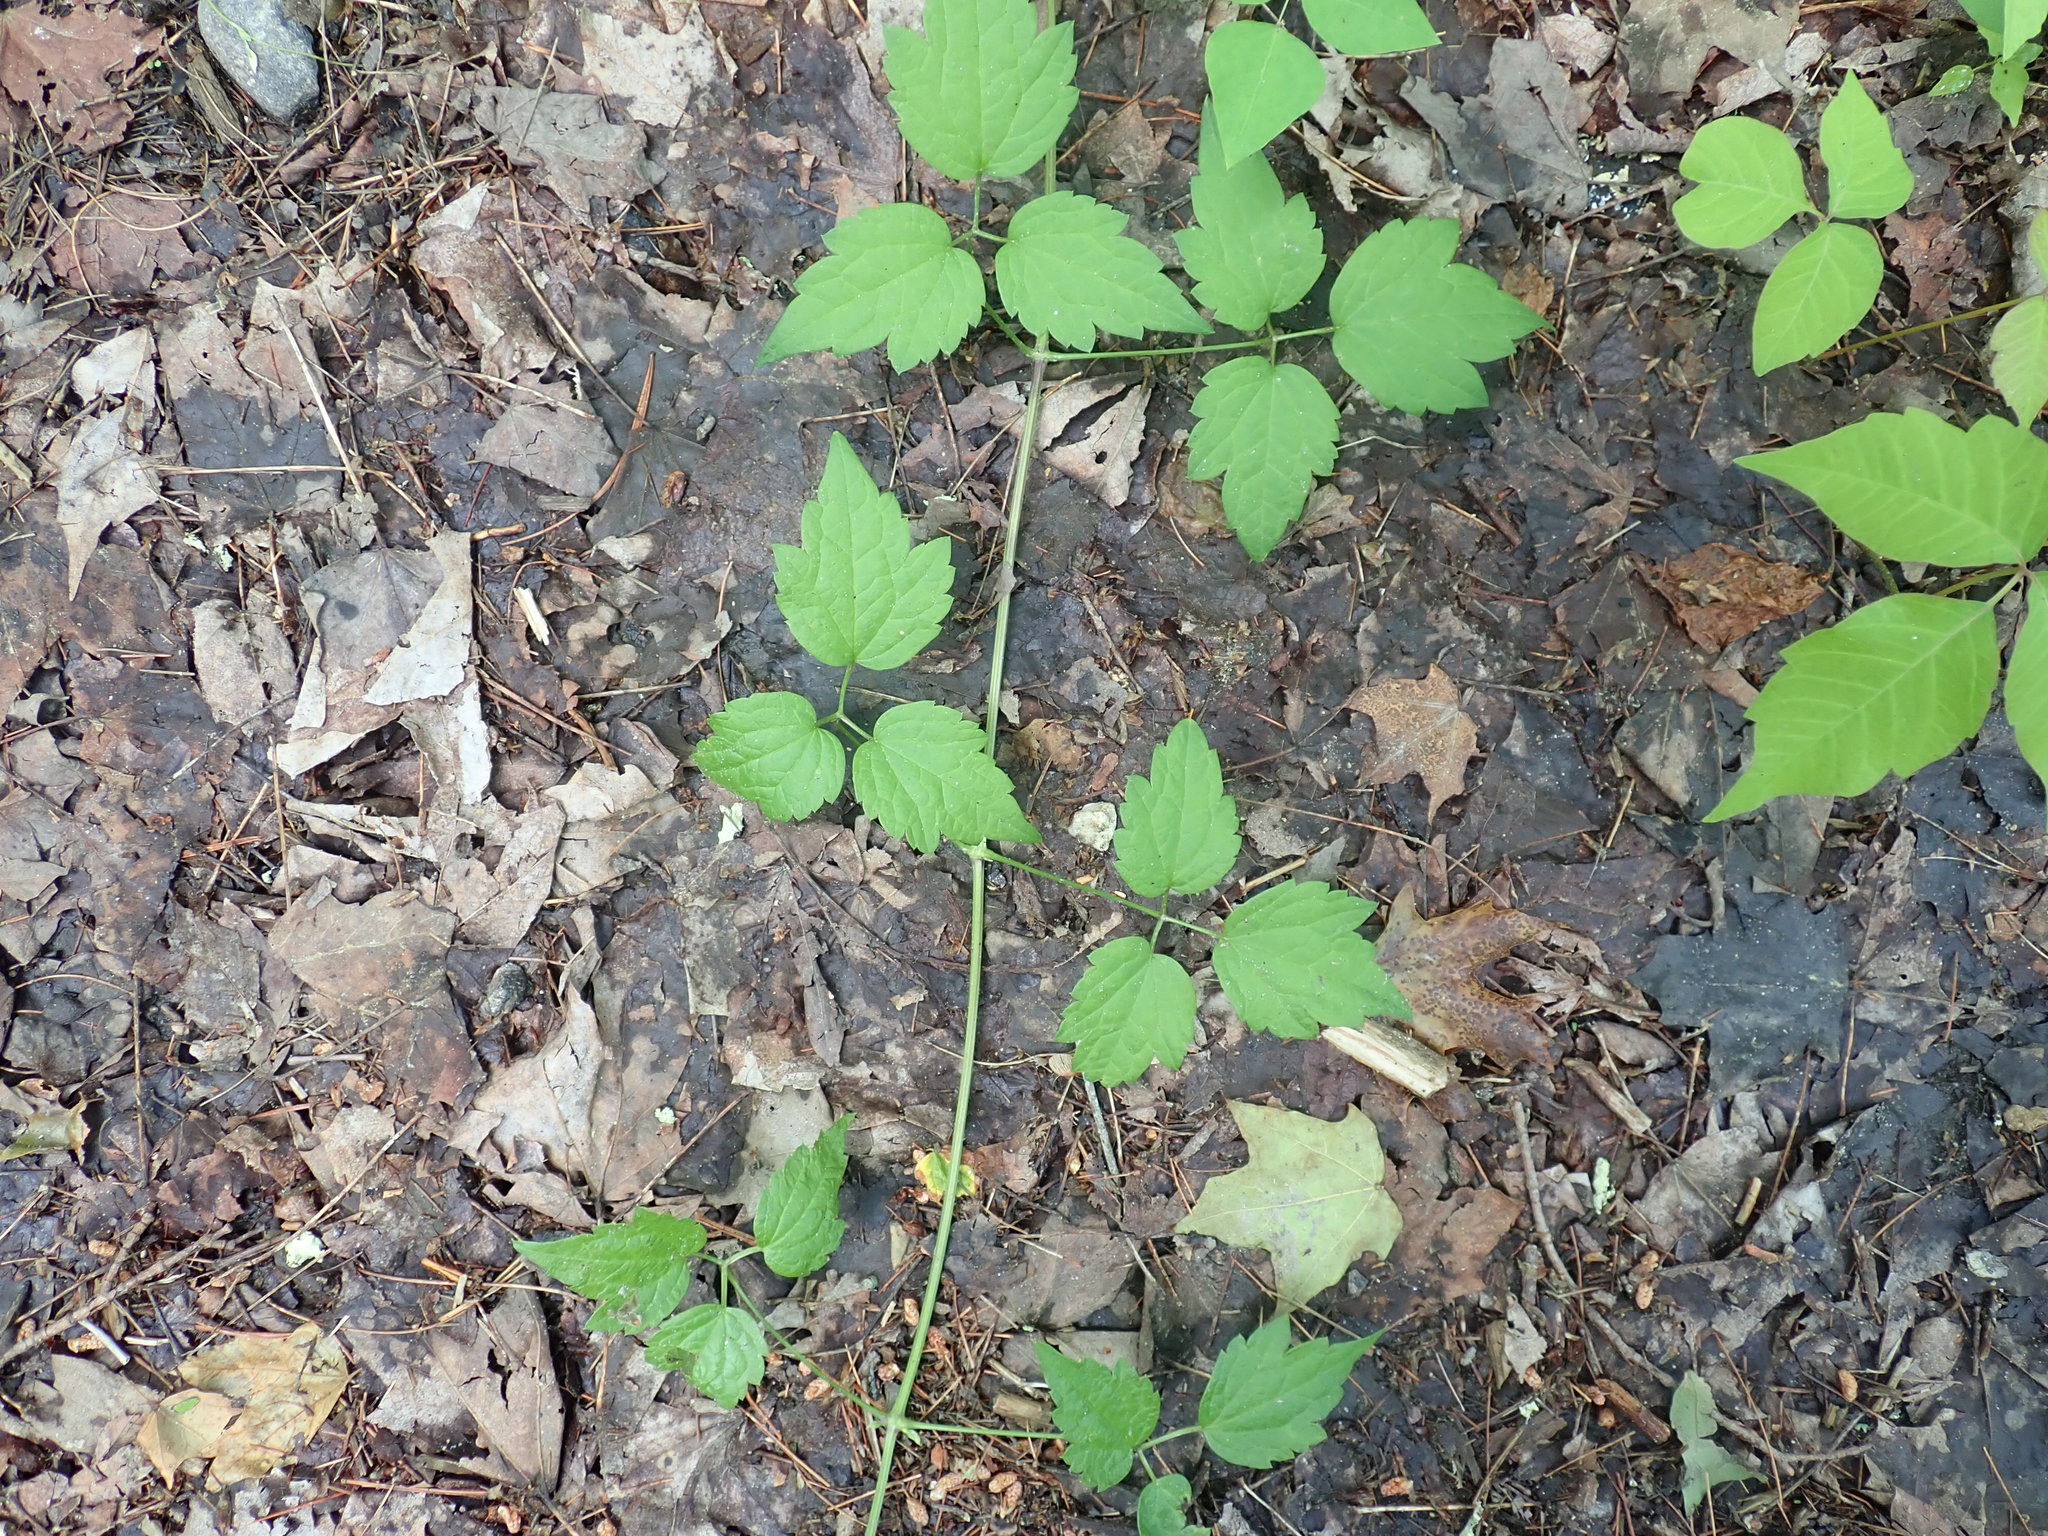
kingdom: Plantae
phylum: Tracheophyta
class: Magnoliopsida
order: Ranunculales
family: Ranunculaceae
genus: Clematis
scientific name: Clematis virginiana
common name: Virgin's-bower
